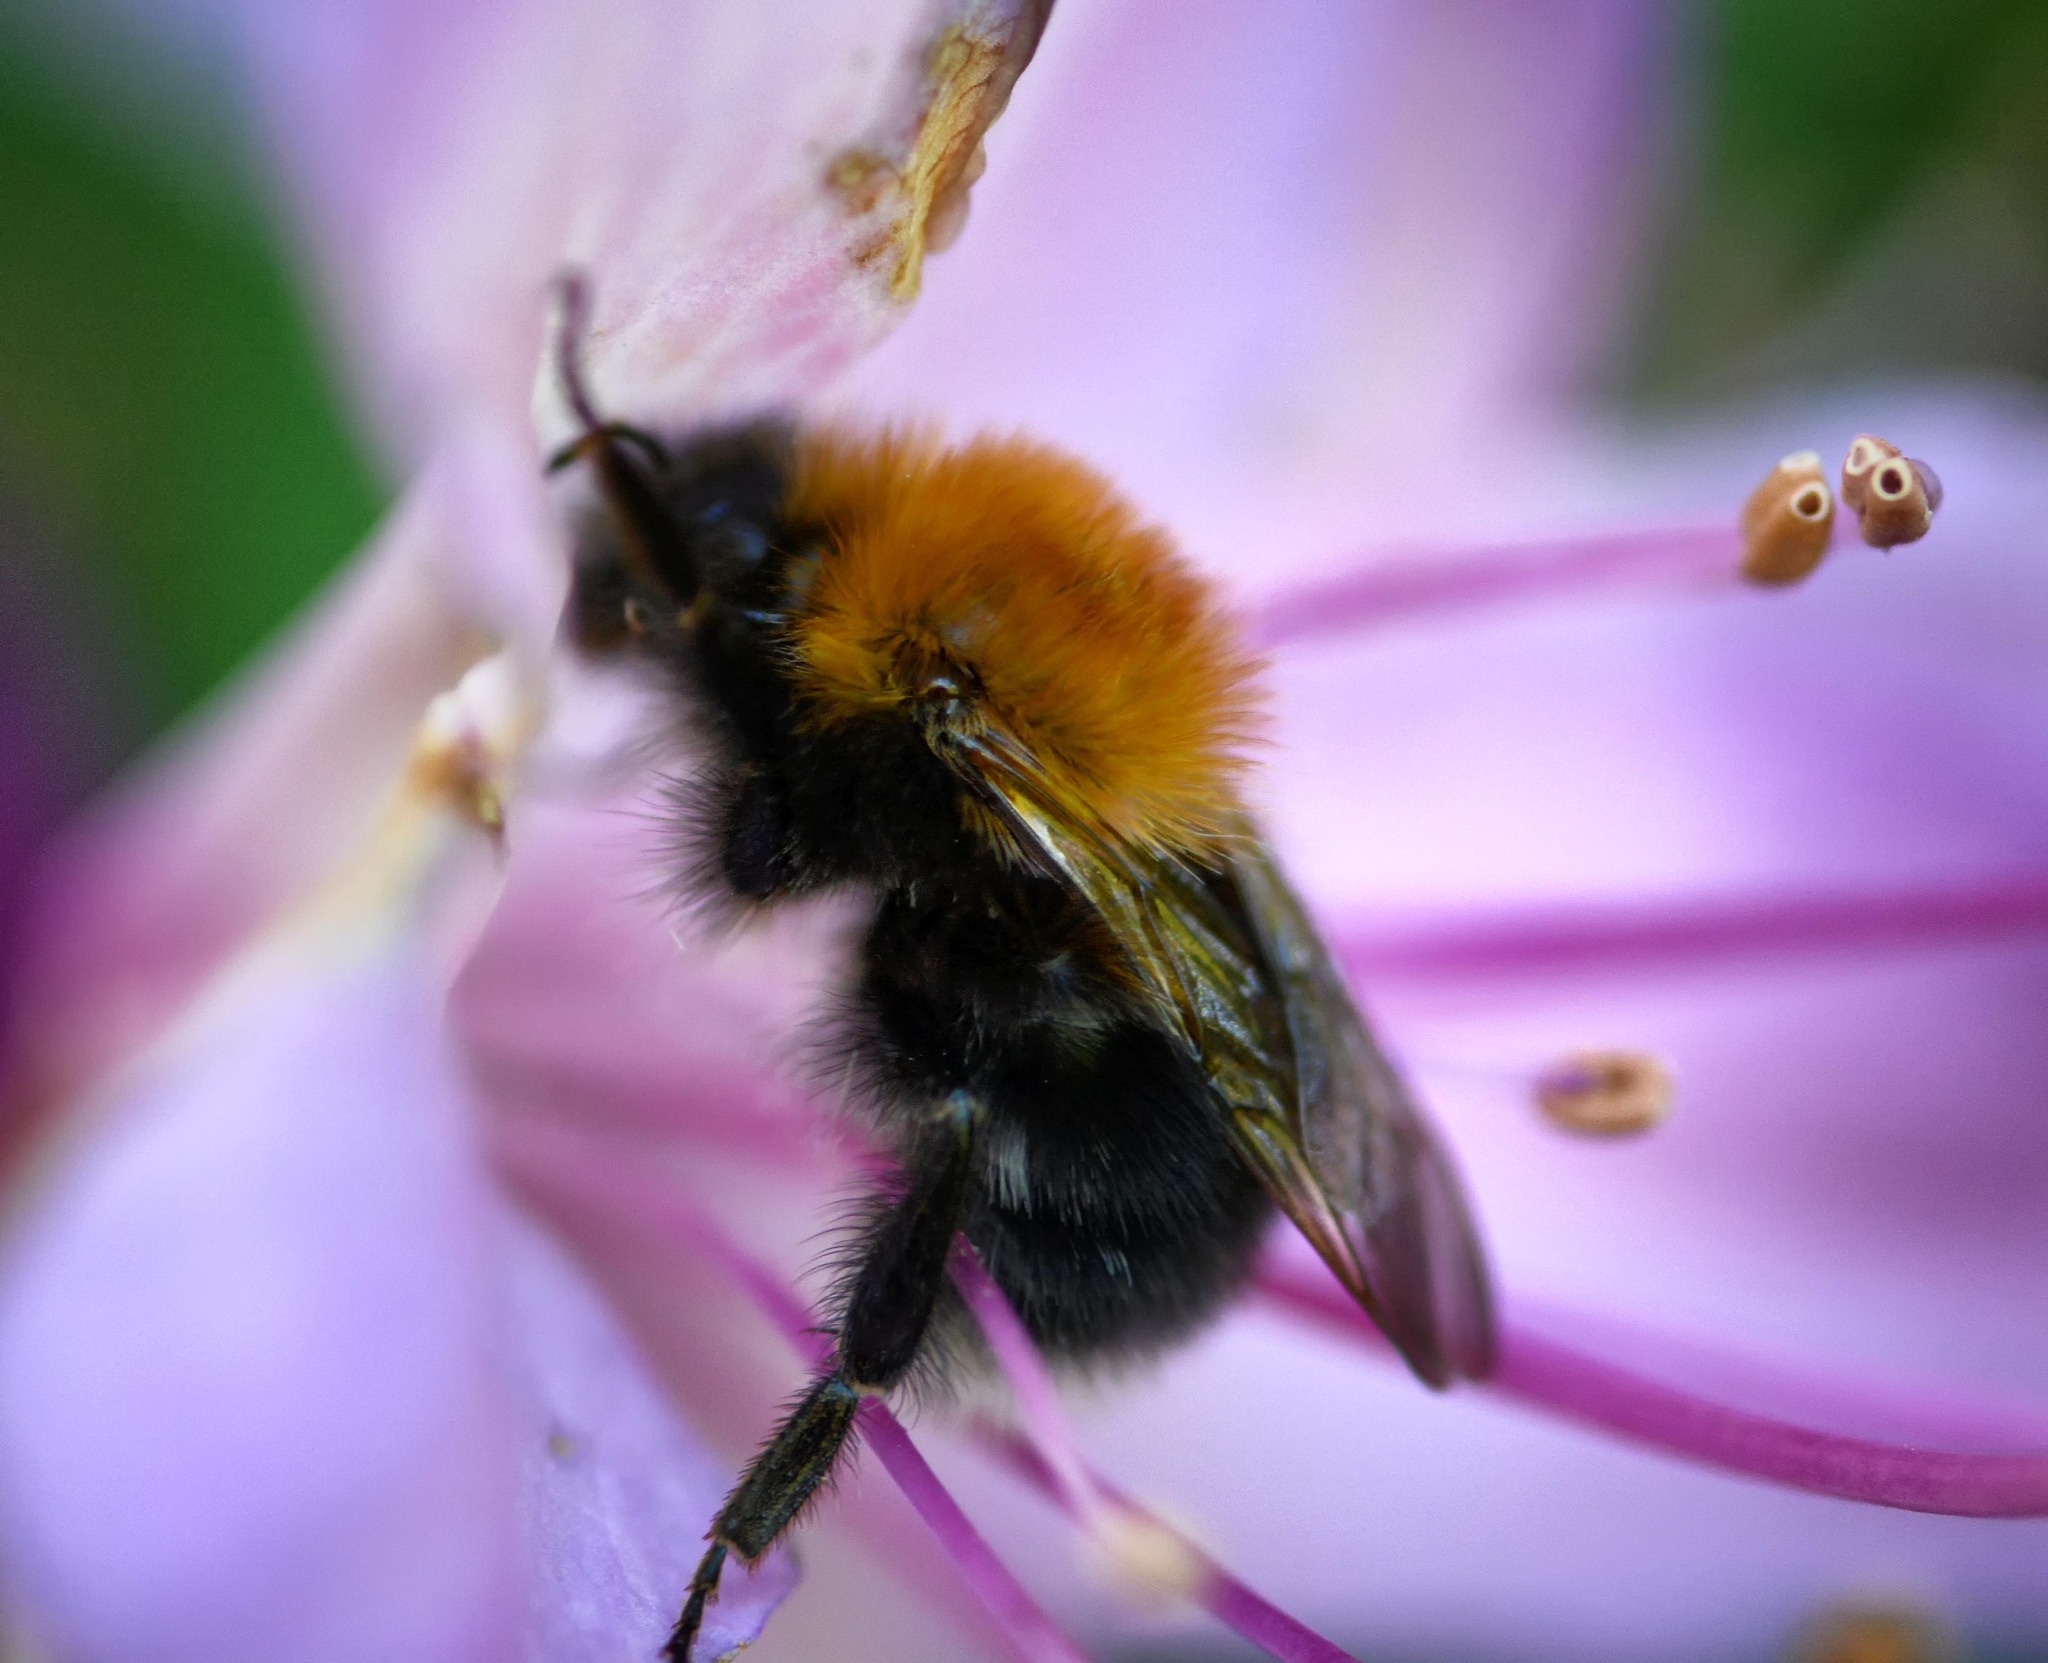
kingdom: Animalia
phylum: Arthropoda
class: Insecta
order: Hymenoptera
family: Apidae
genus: Bombus
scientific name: Bombus hypnorum
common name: New garden bumblebee
